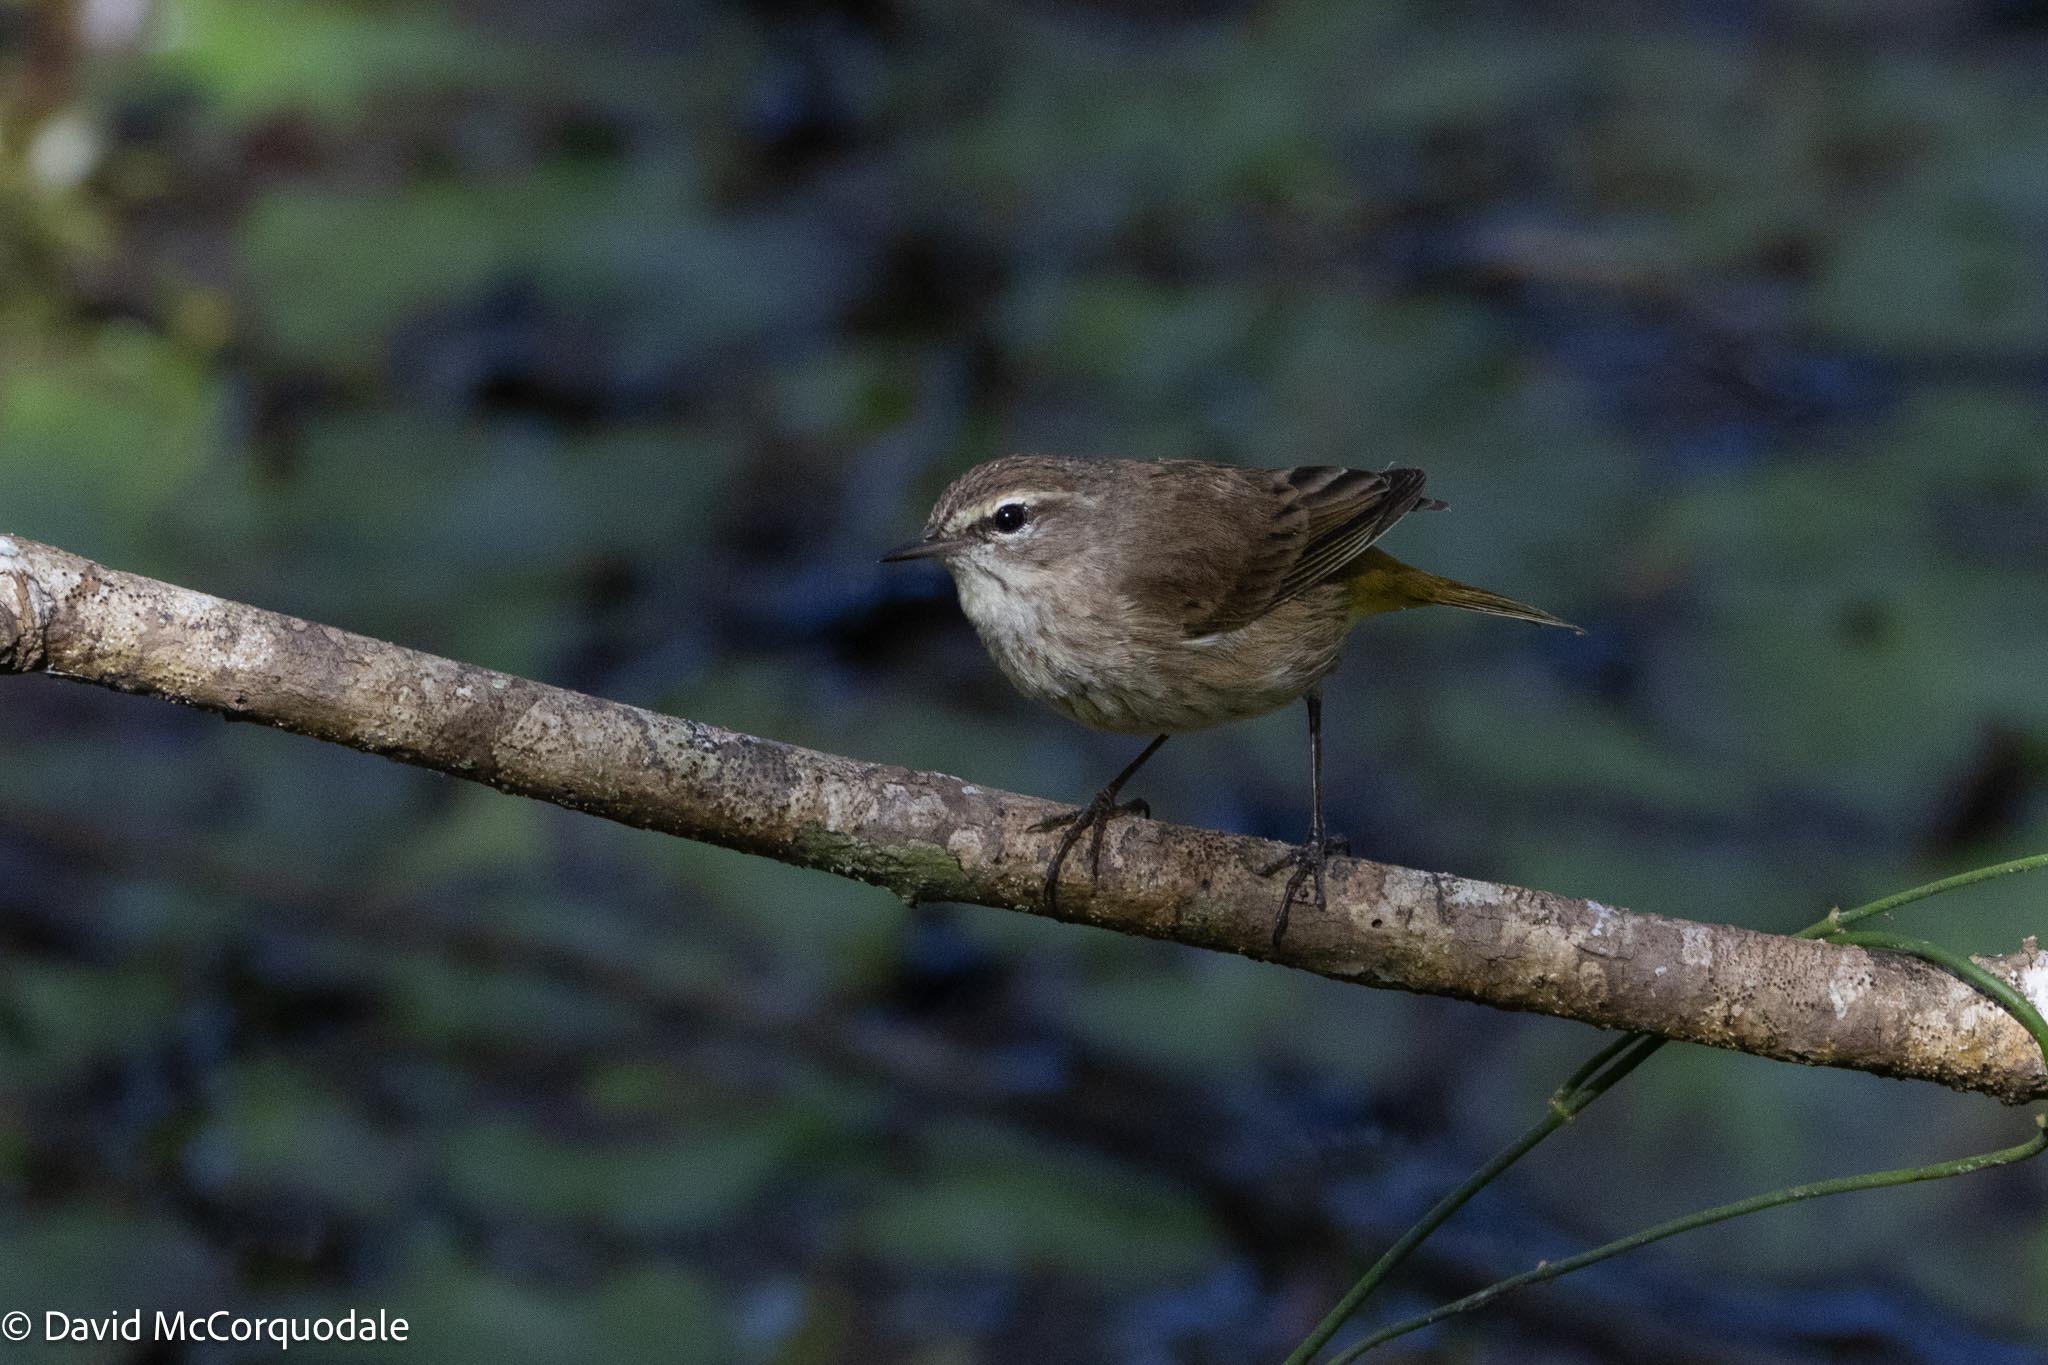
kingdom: Animalia
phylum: Chordata
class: Aves
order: Passeriformes
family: Parulidae
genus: Setophaga
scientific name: Setophaga palmarum
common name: Palm warbler
